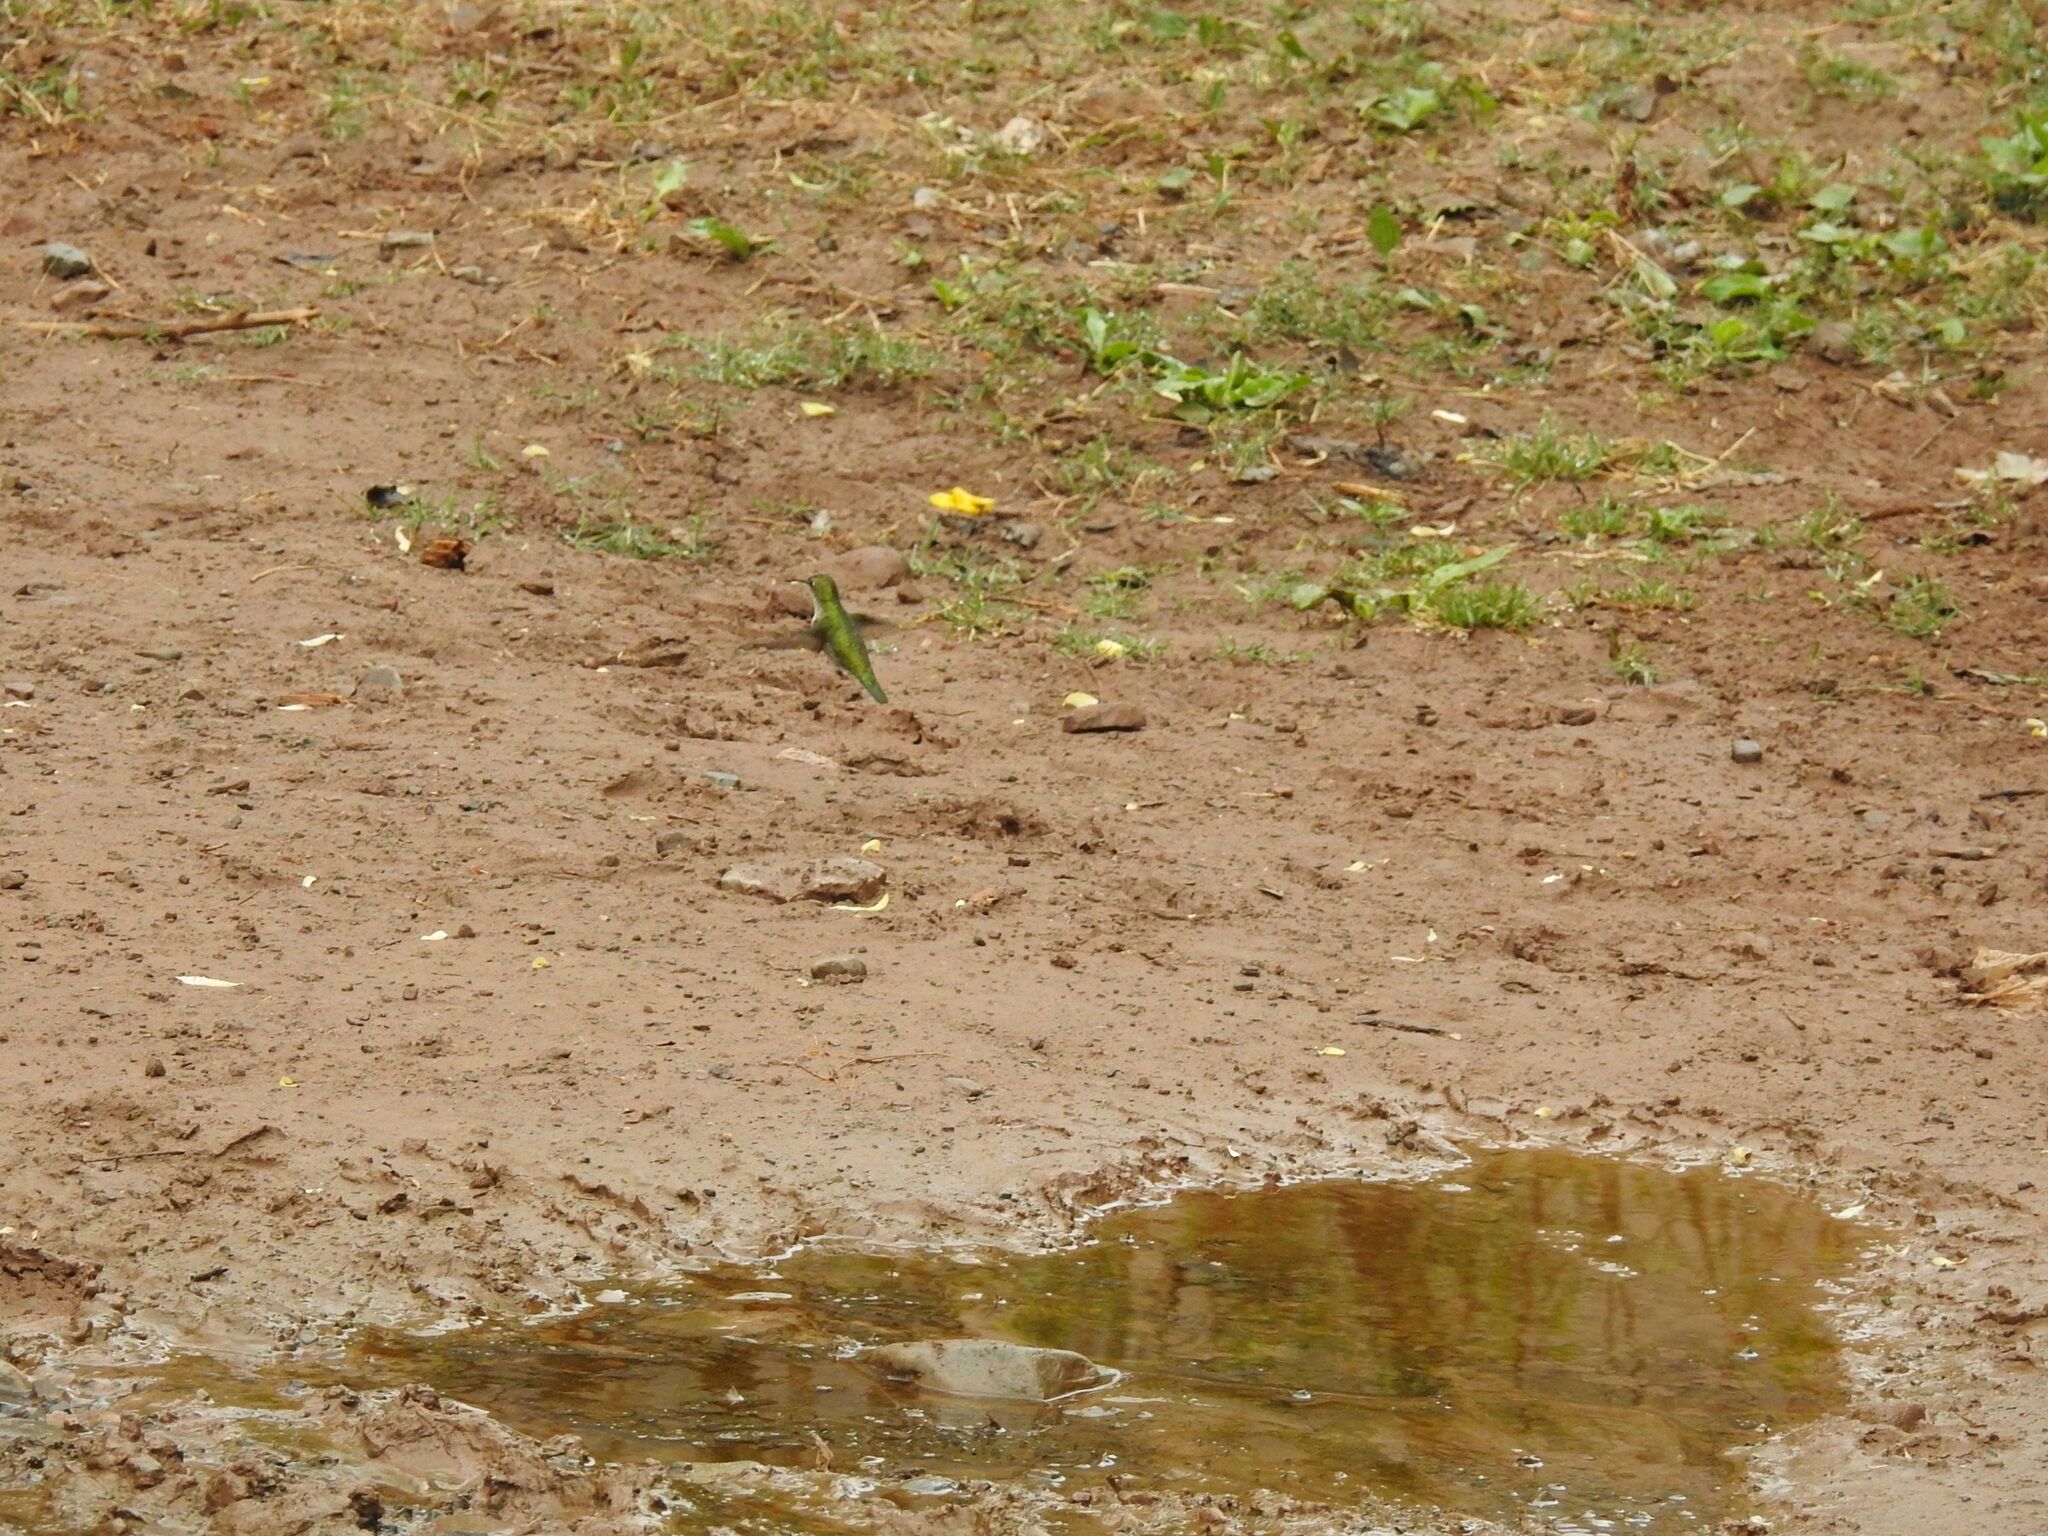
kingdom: Animalia
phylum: Chordata
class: Aves
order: Apodiformes
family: Trochilidae
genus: Elliotomyia
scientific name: Elliotomyia chionogaster
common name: White-bellied hummingbird
